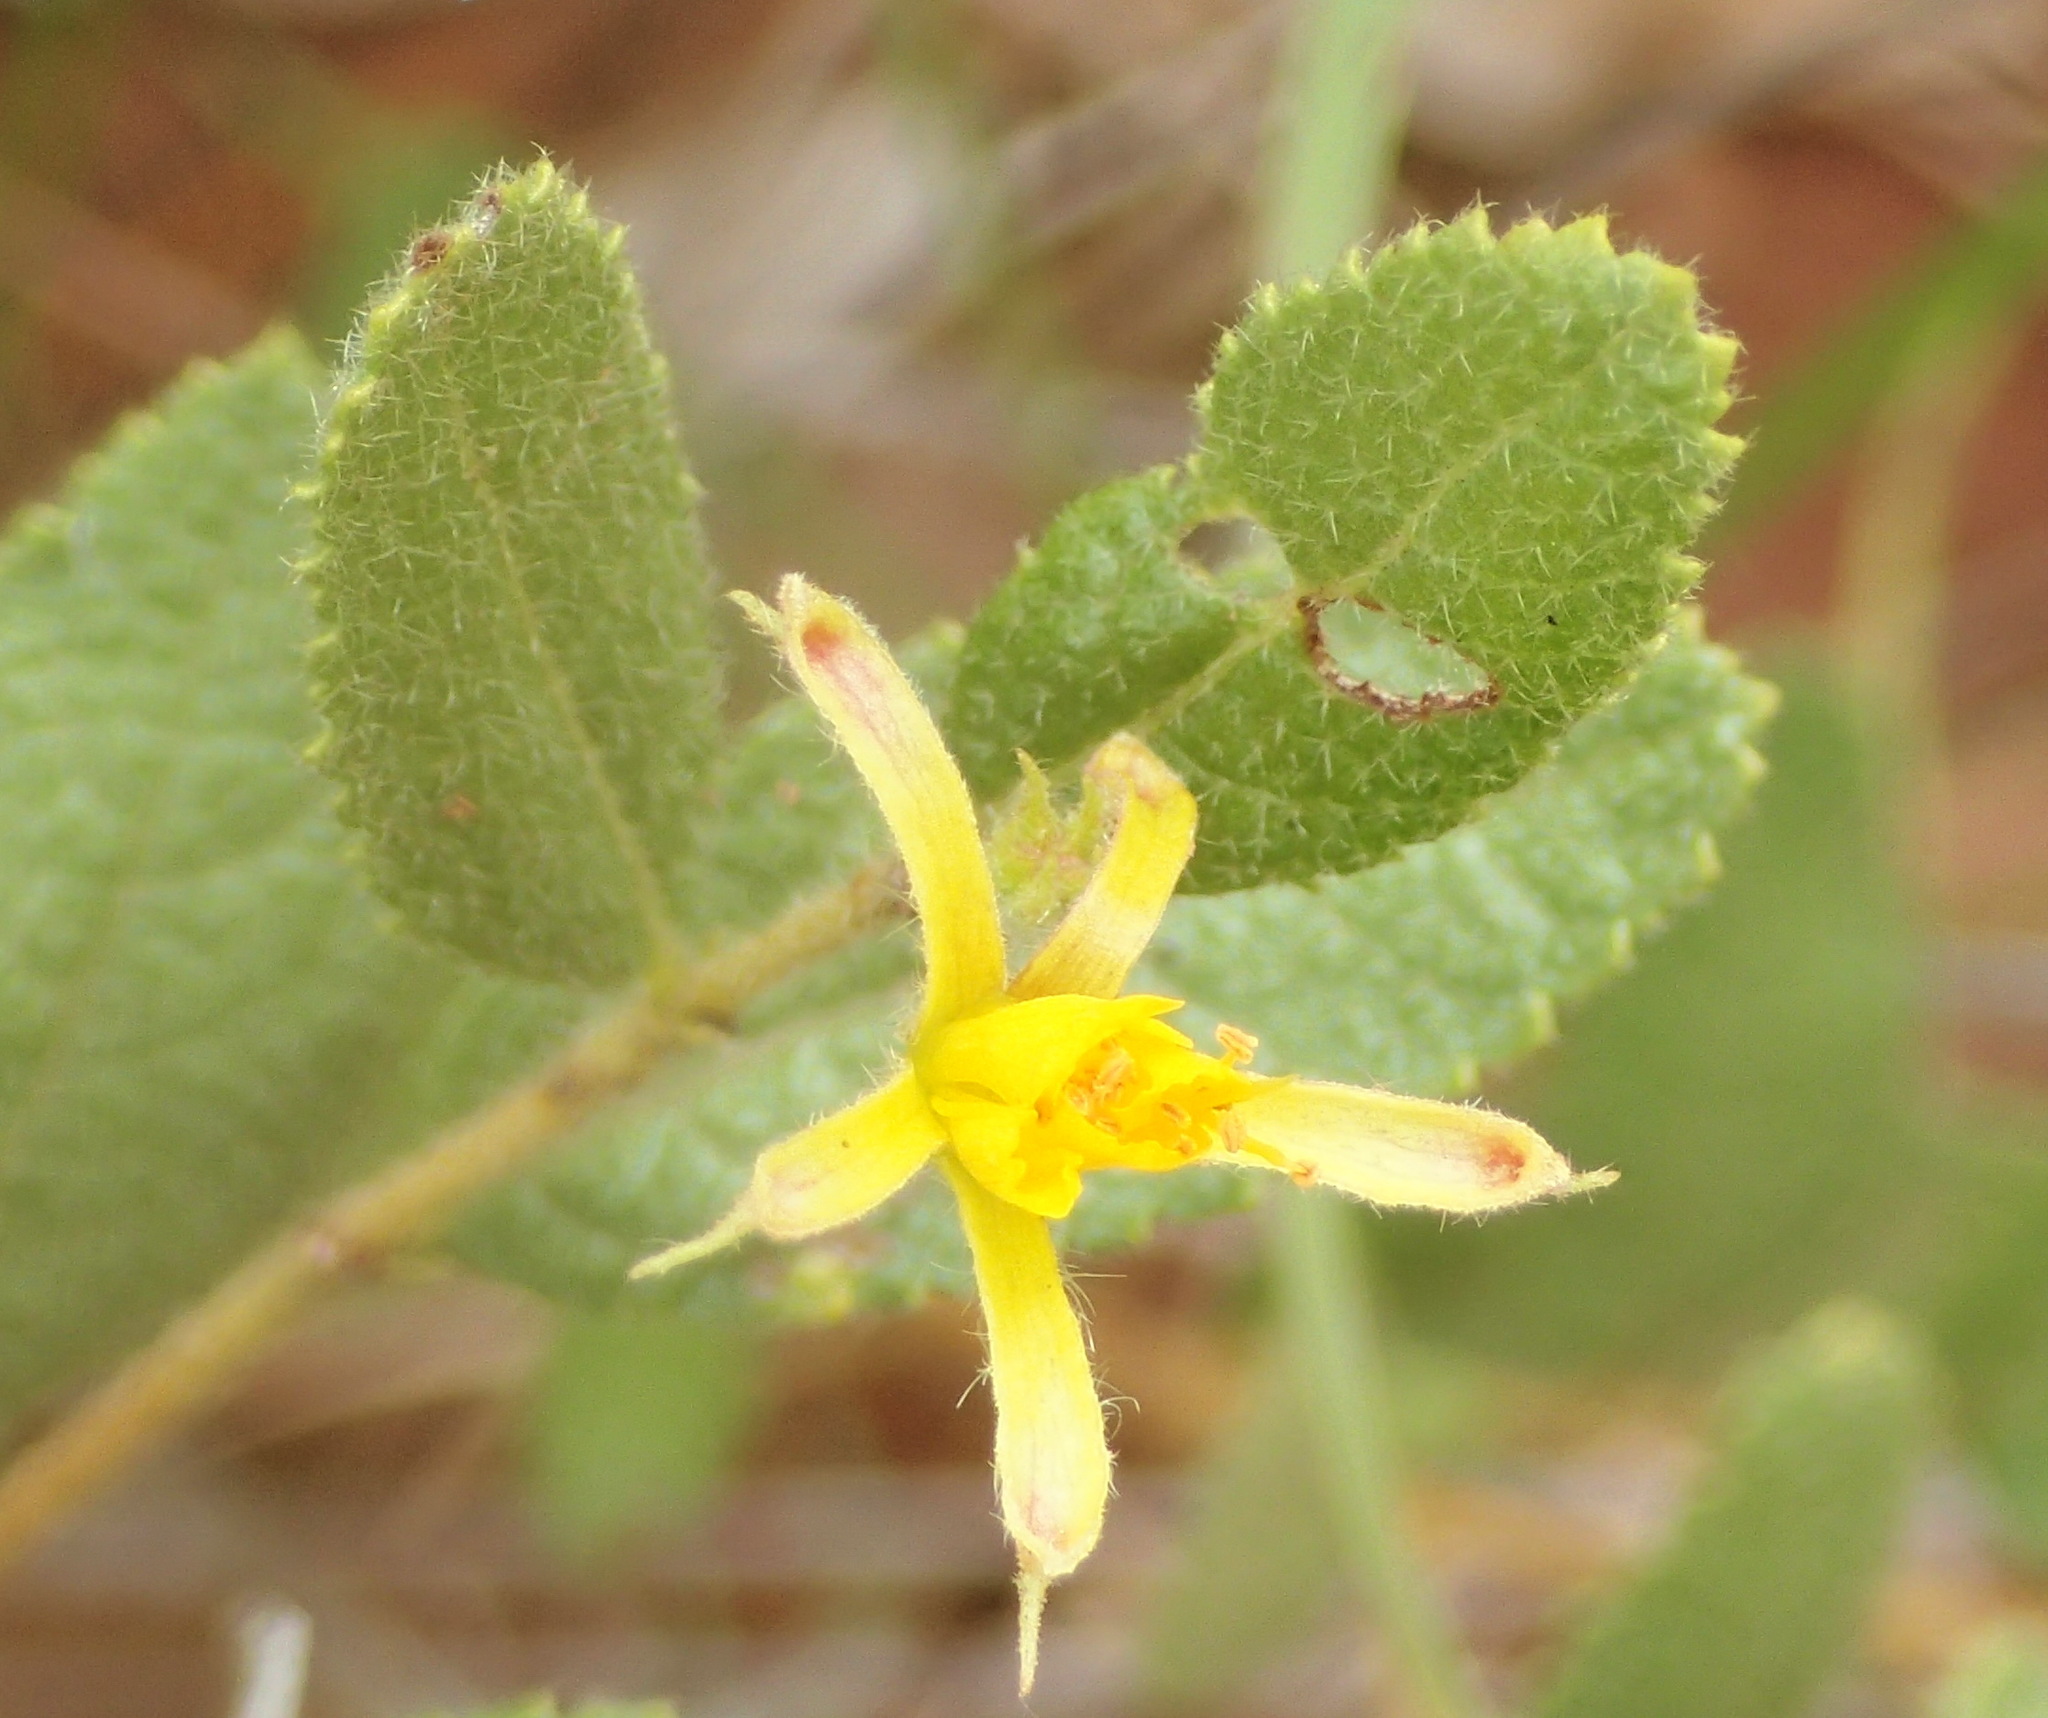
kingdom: Plantae
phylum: Tracheophyta
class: Magnoliopsida
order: Malvales
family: Malvaceae
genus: Triumfetta
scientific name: Triumfetta sonderi
